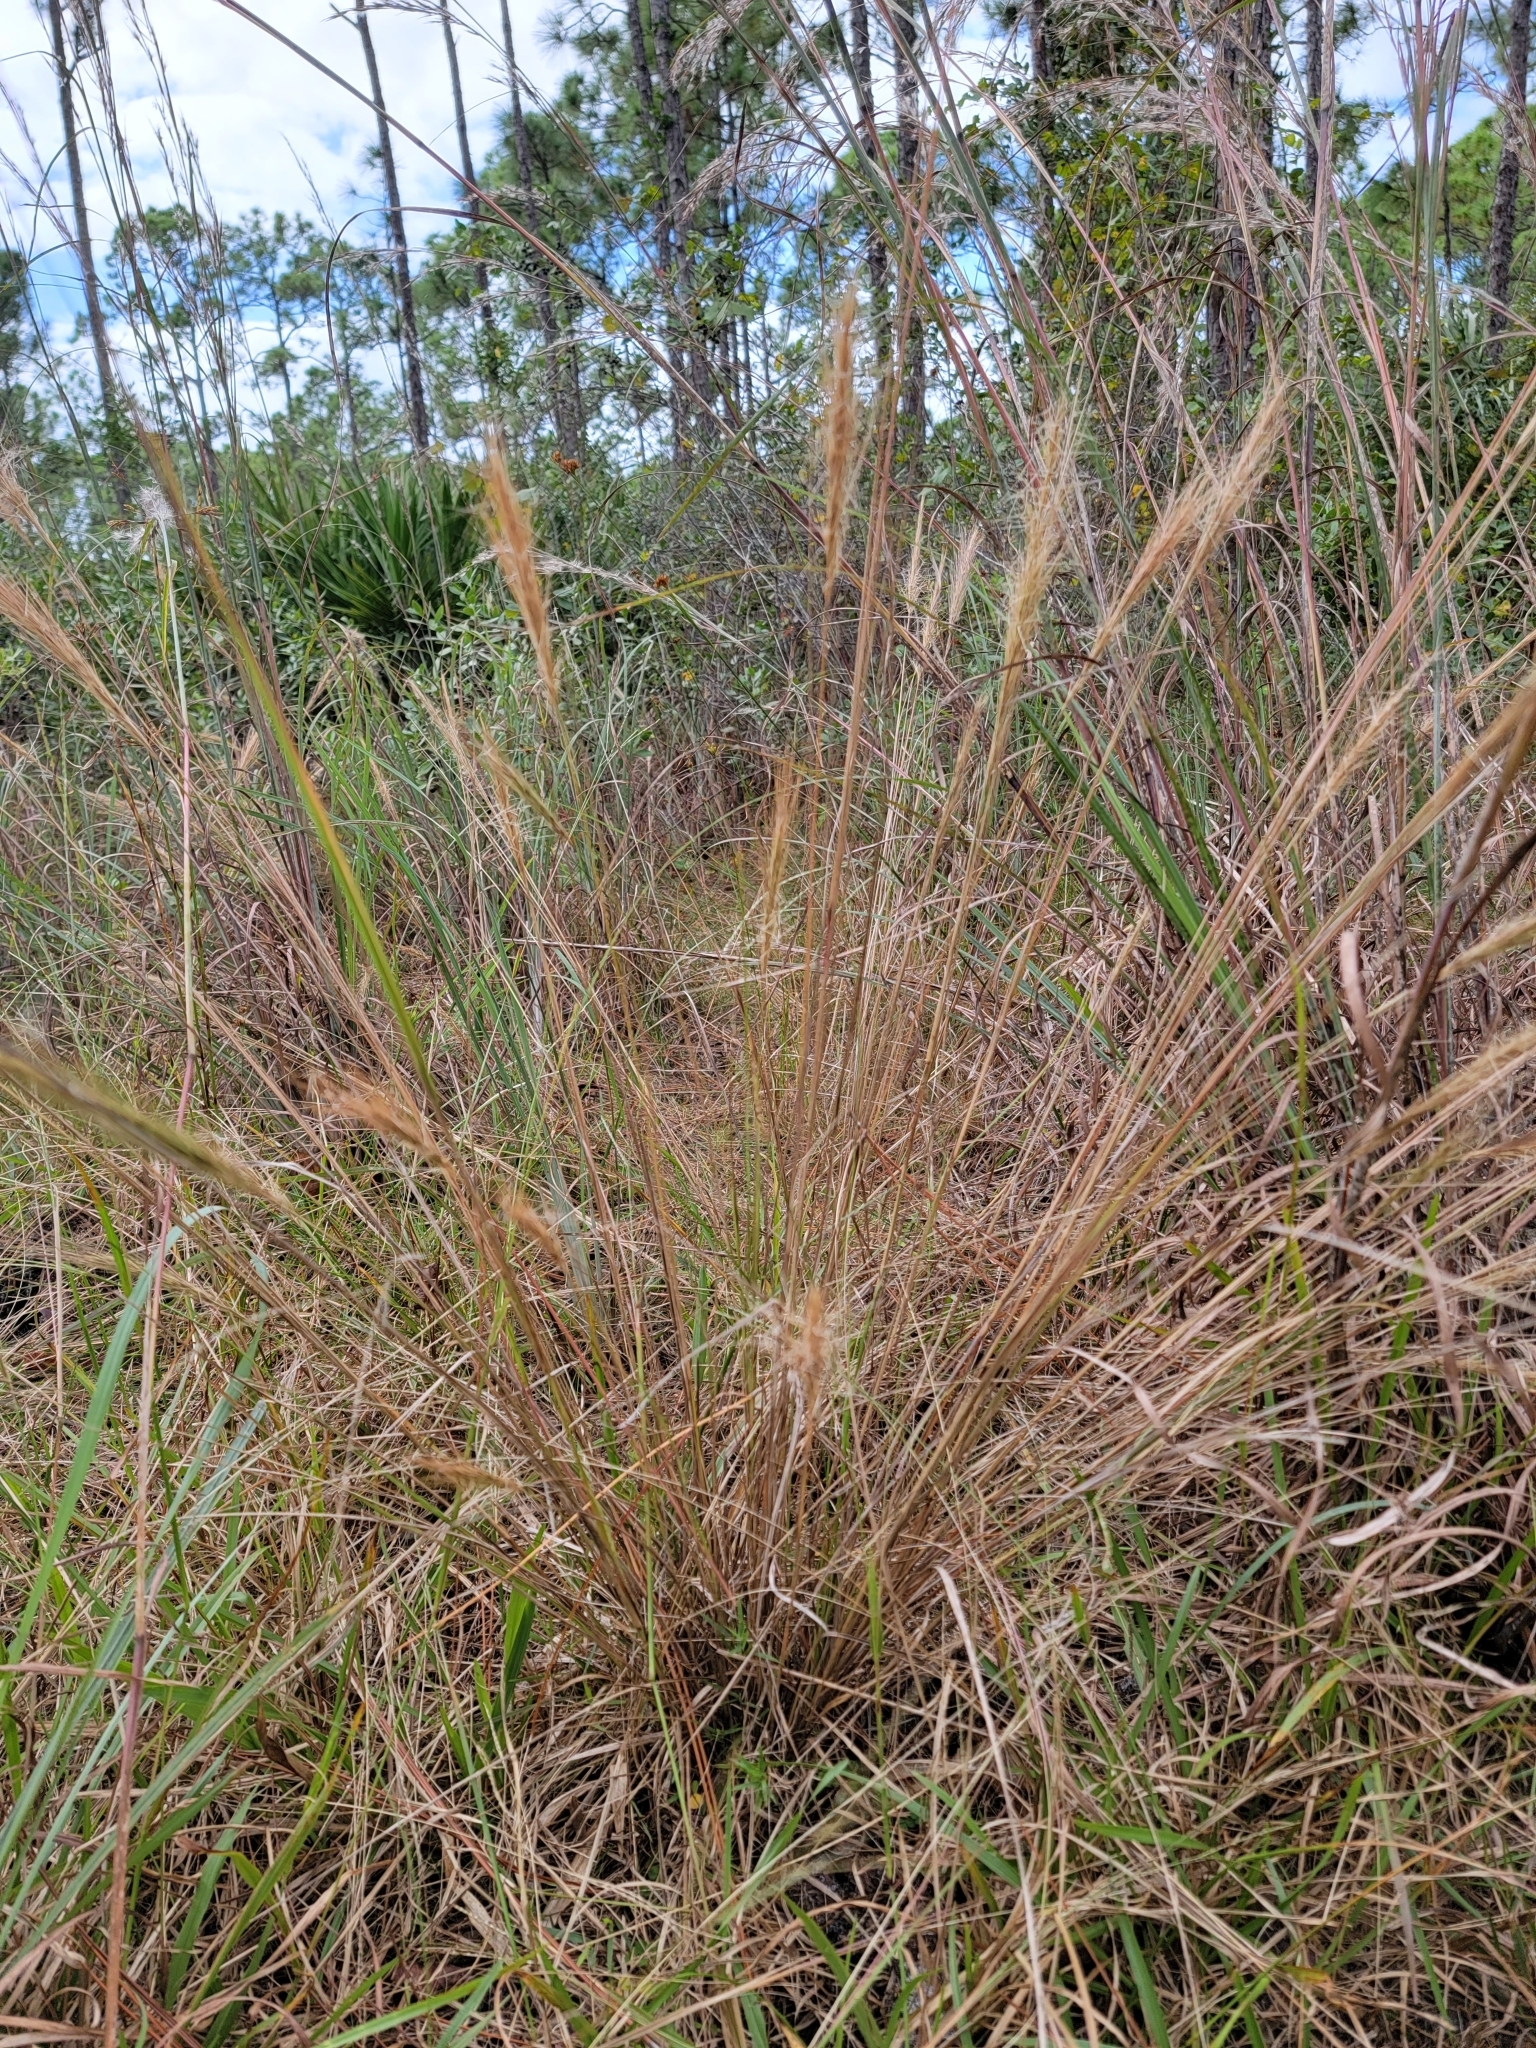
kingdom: Plantae
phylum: Tracheophyta
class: Liliopsida
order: Poales
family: Poaceae
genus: Aristida
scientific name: Aristida spiciformis
